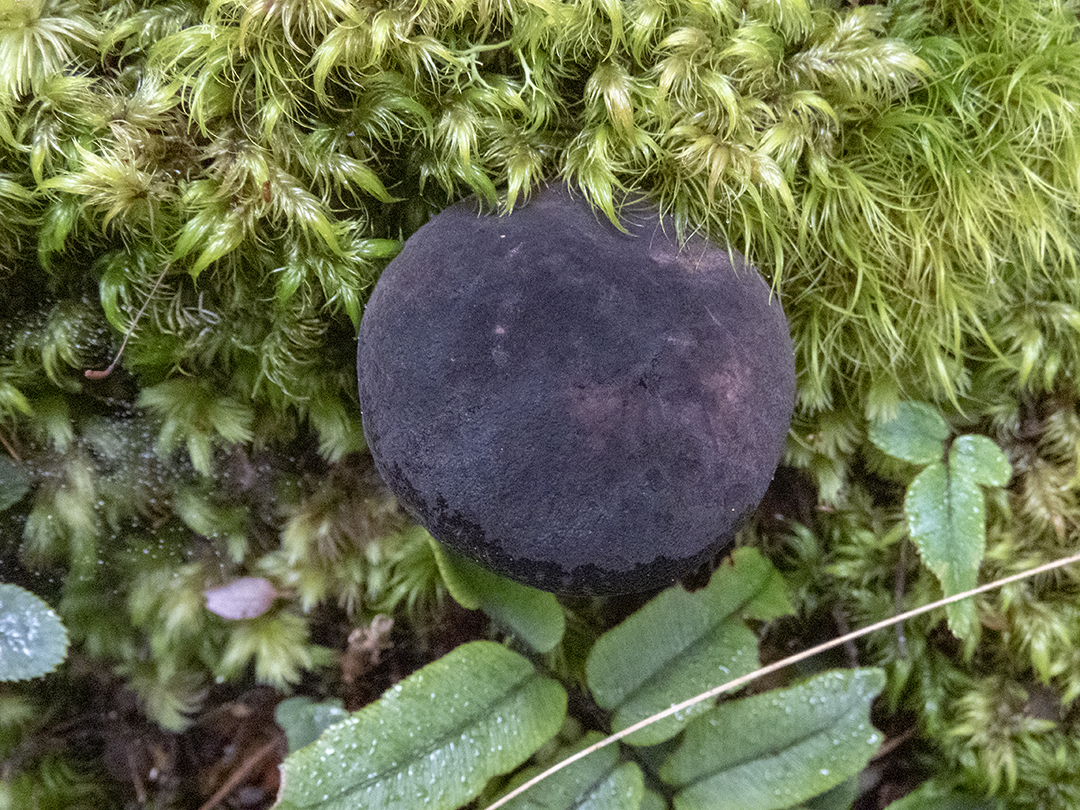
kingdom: Fungi
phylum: Basidiomycota
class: Agaricomycetes
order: Boletales
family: Boletaceae
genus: Porphyrellus
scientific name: Porphyrellus formosus
